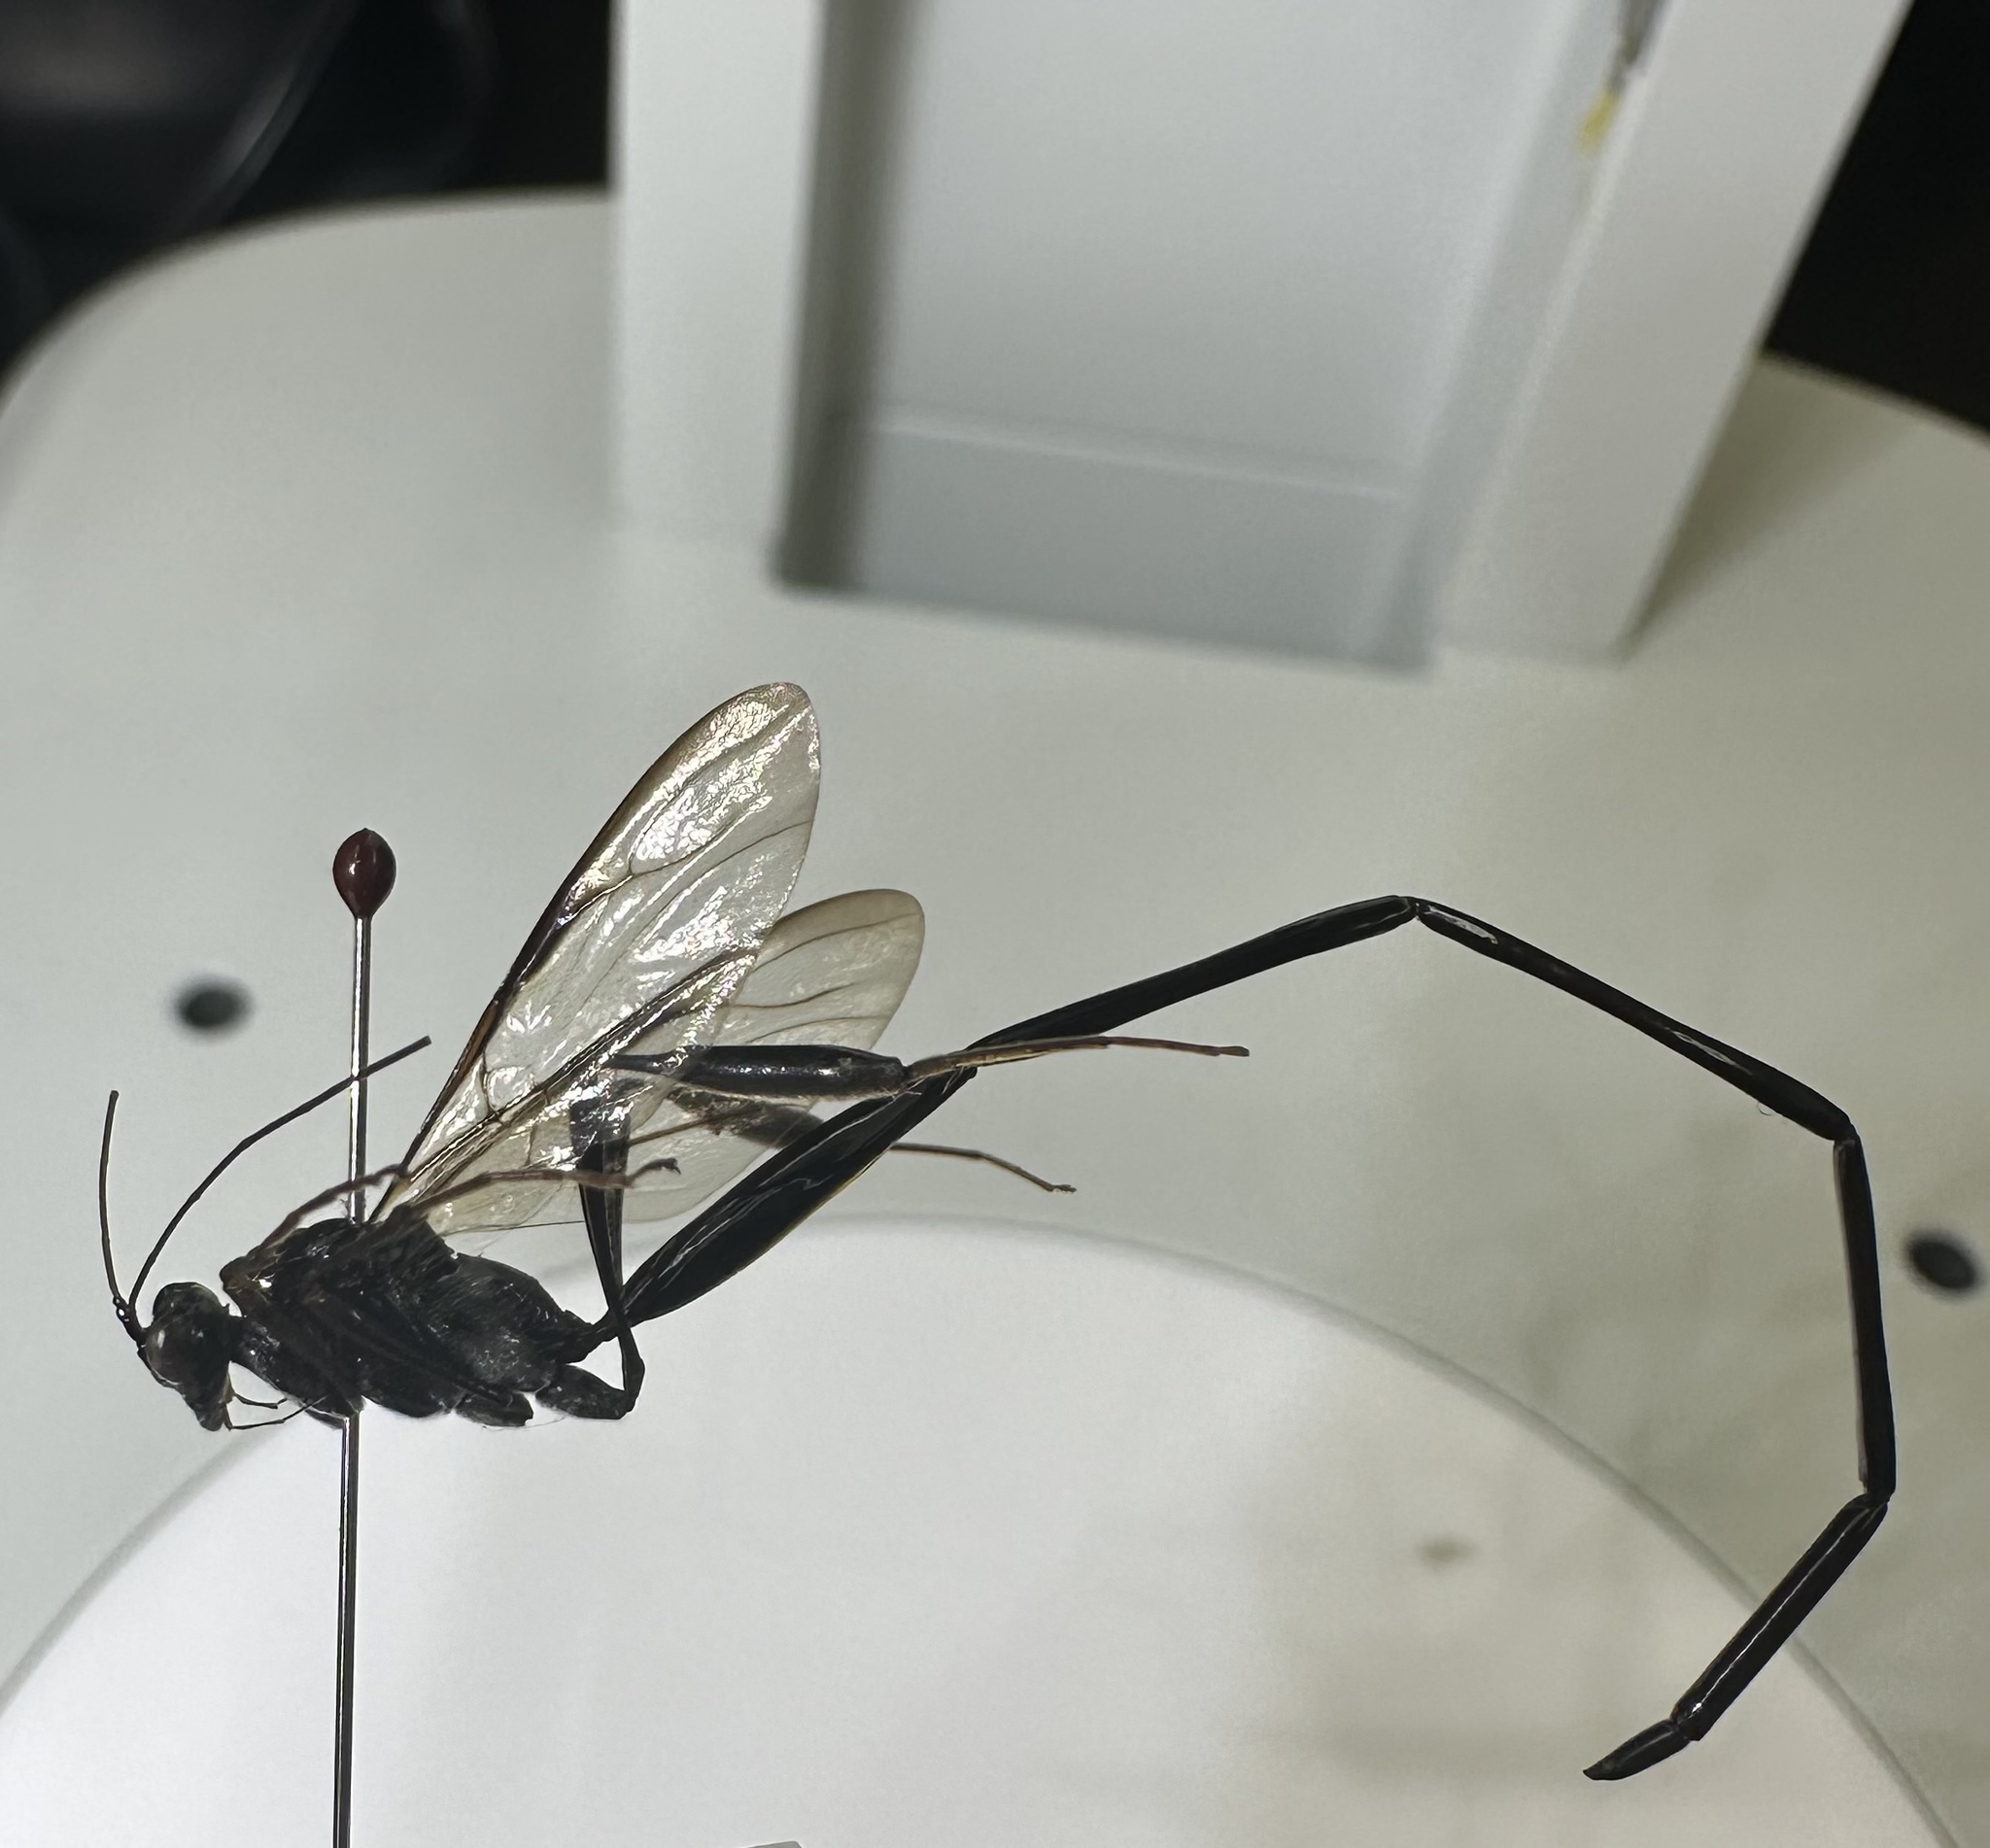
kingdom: Animalia
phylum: Arthropoda
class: Insecta
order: Hymenoptera
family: Pelecinidae
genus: Pelecinus
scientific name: Pelecinus polyturator
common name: American pelecinid wasp
